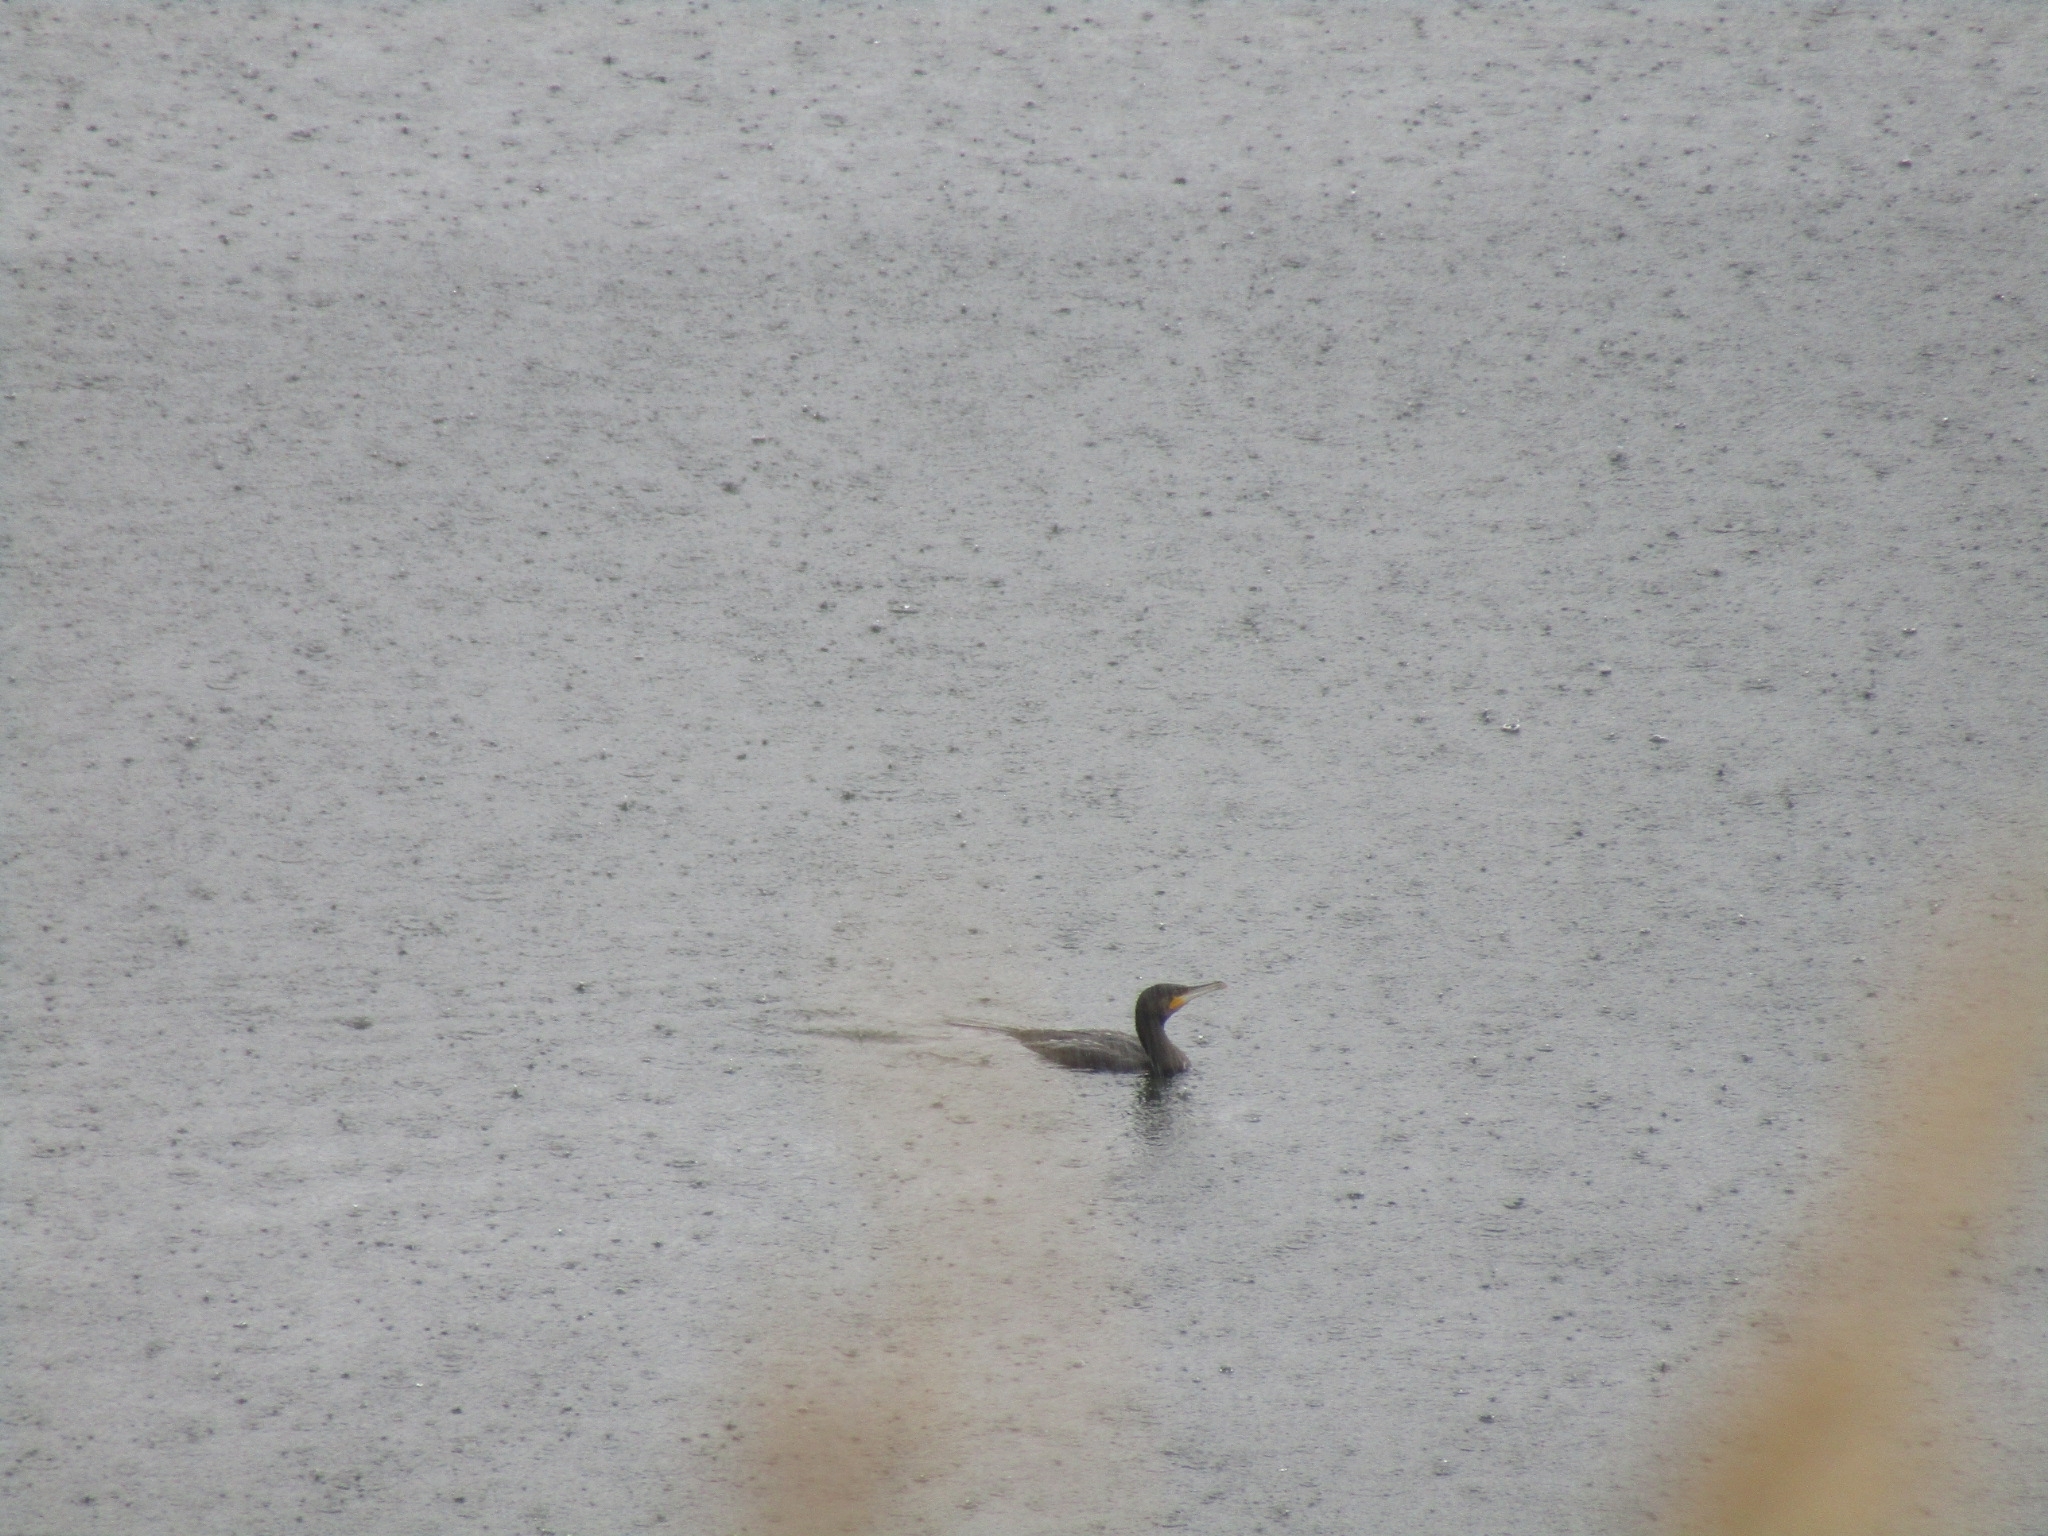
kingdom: Animalia
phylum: Chordata
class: Aves
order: Suliformes
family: Phalacrocoracidae
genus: Phalacrocorax
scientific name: Phalacrocorax carbo
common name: Great cormorant
